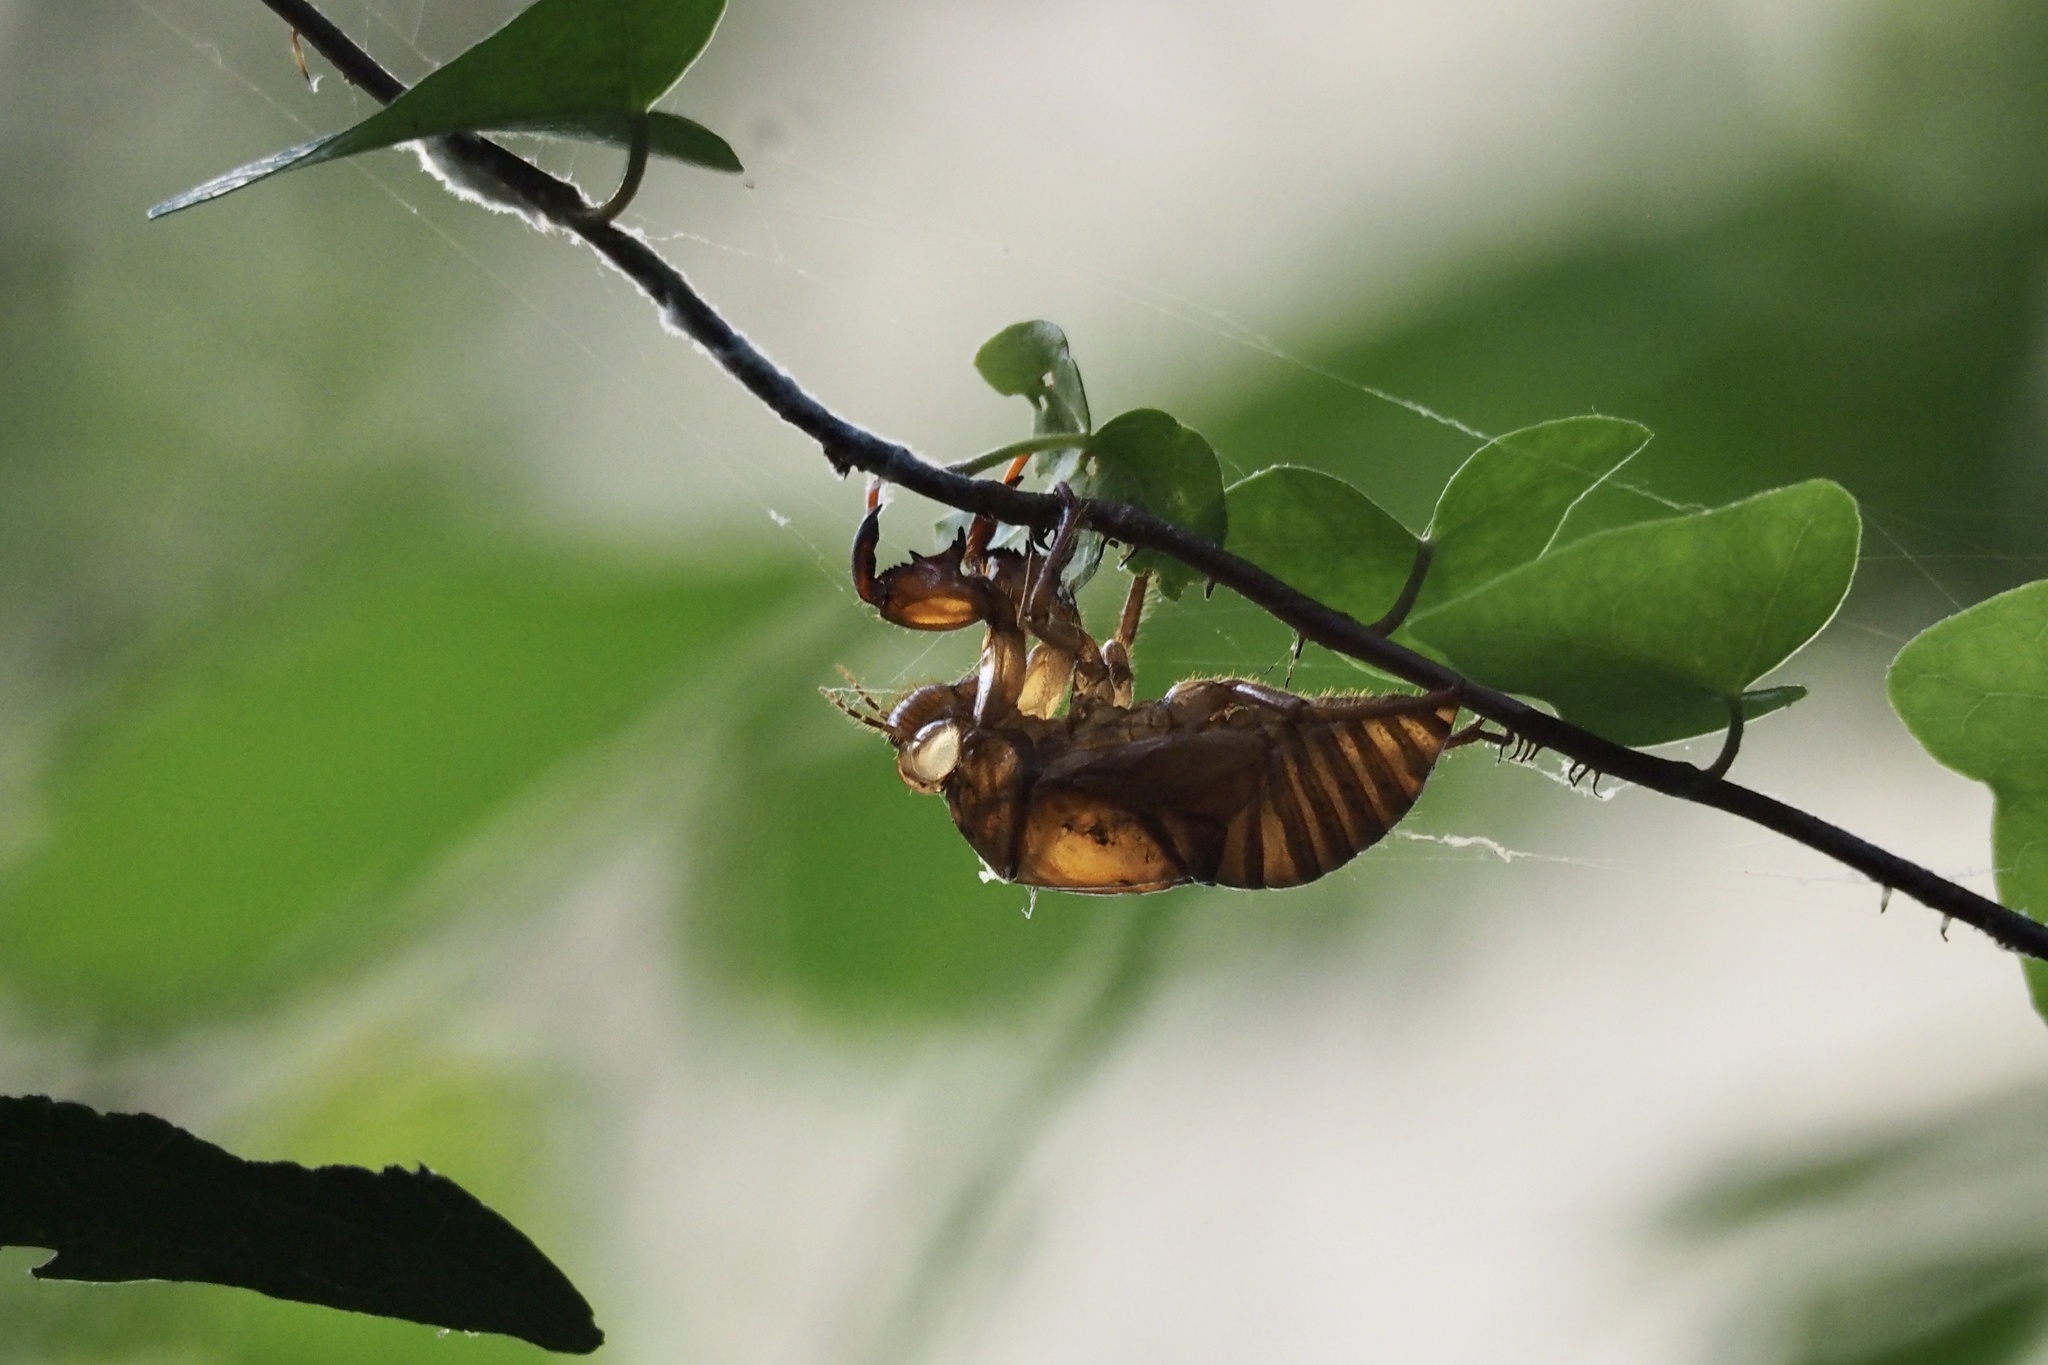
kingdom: Animalia
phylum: Arthropoda
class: Insecta
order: Hemiptera
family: Cicadidae
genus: Graptopsaltria
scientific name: Graptopsaltria nigrofuscata
